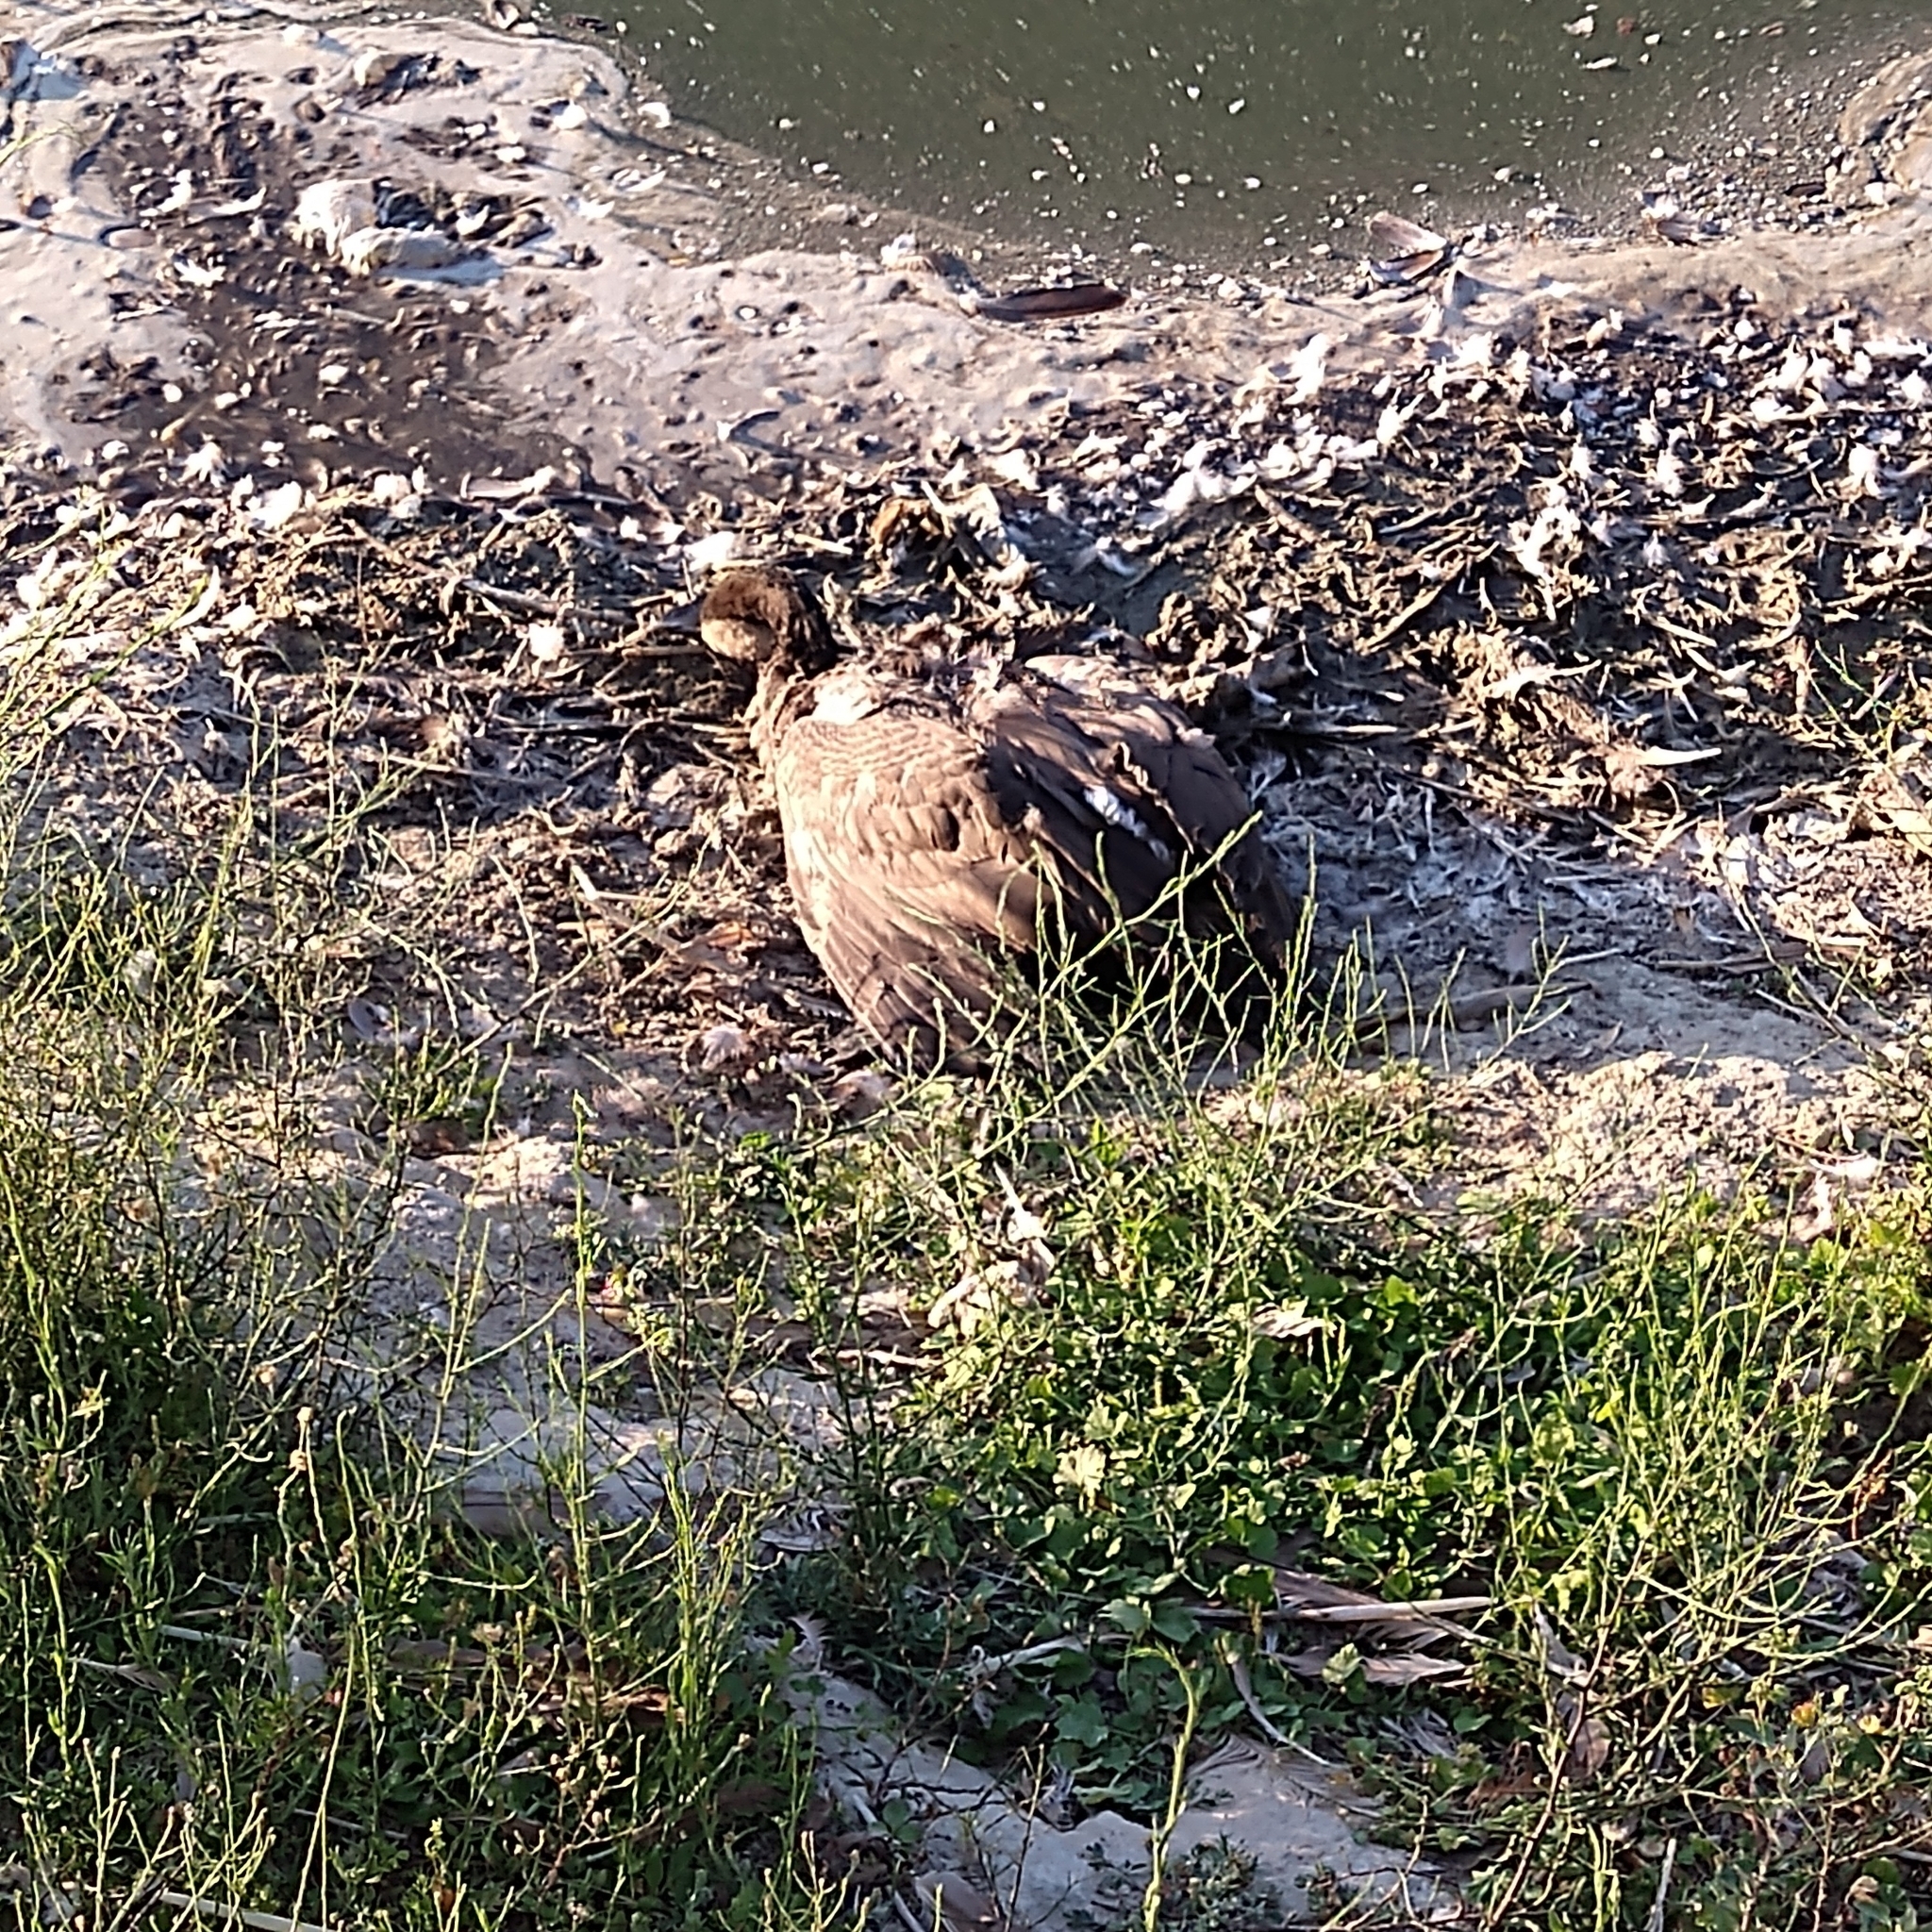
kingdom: Animalia
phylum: Chordata
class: Aves
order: Anseriformes
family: Anatidae
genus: Branta
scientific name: Branta canadensis
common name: Canada goose
